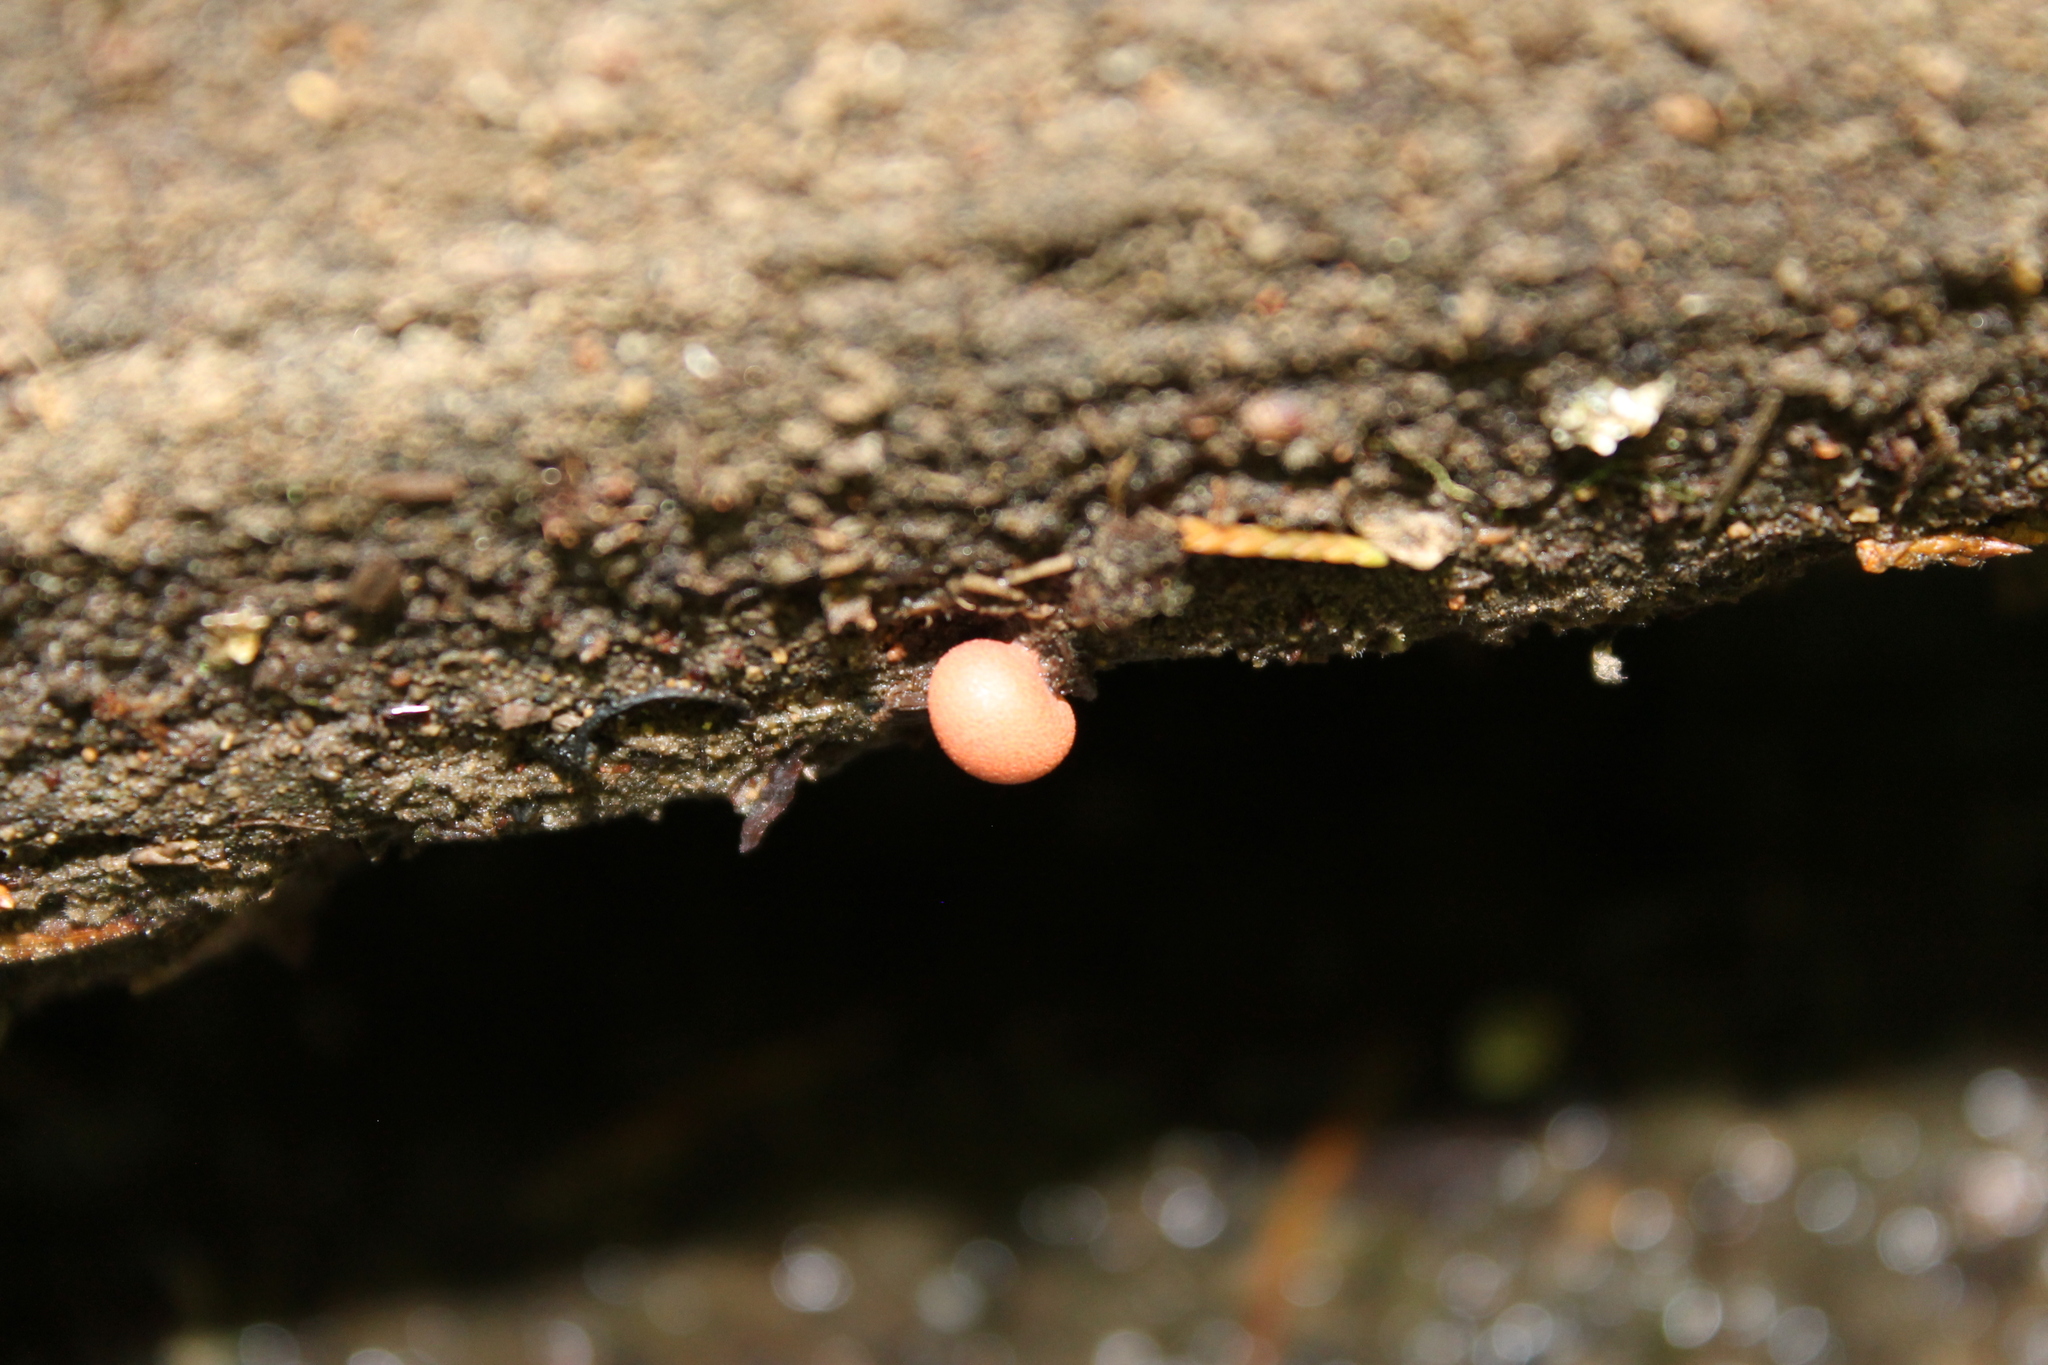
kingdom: Protozoa
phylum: Mycetozoa
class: Myxomycetes
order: Cribrariales
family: Tubiferaceae
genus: Lycogala
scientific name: Lycogala epidendrum
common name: Wolf's milk
